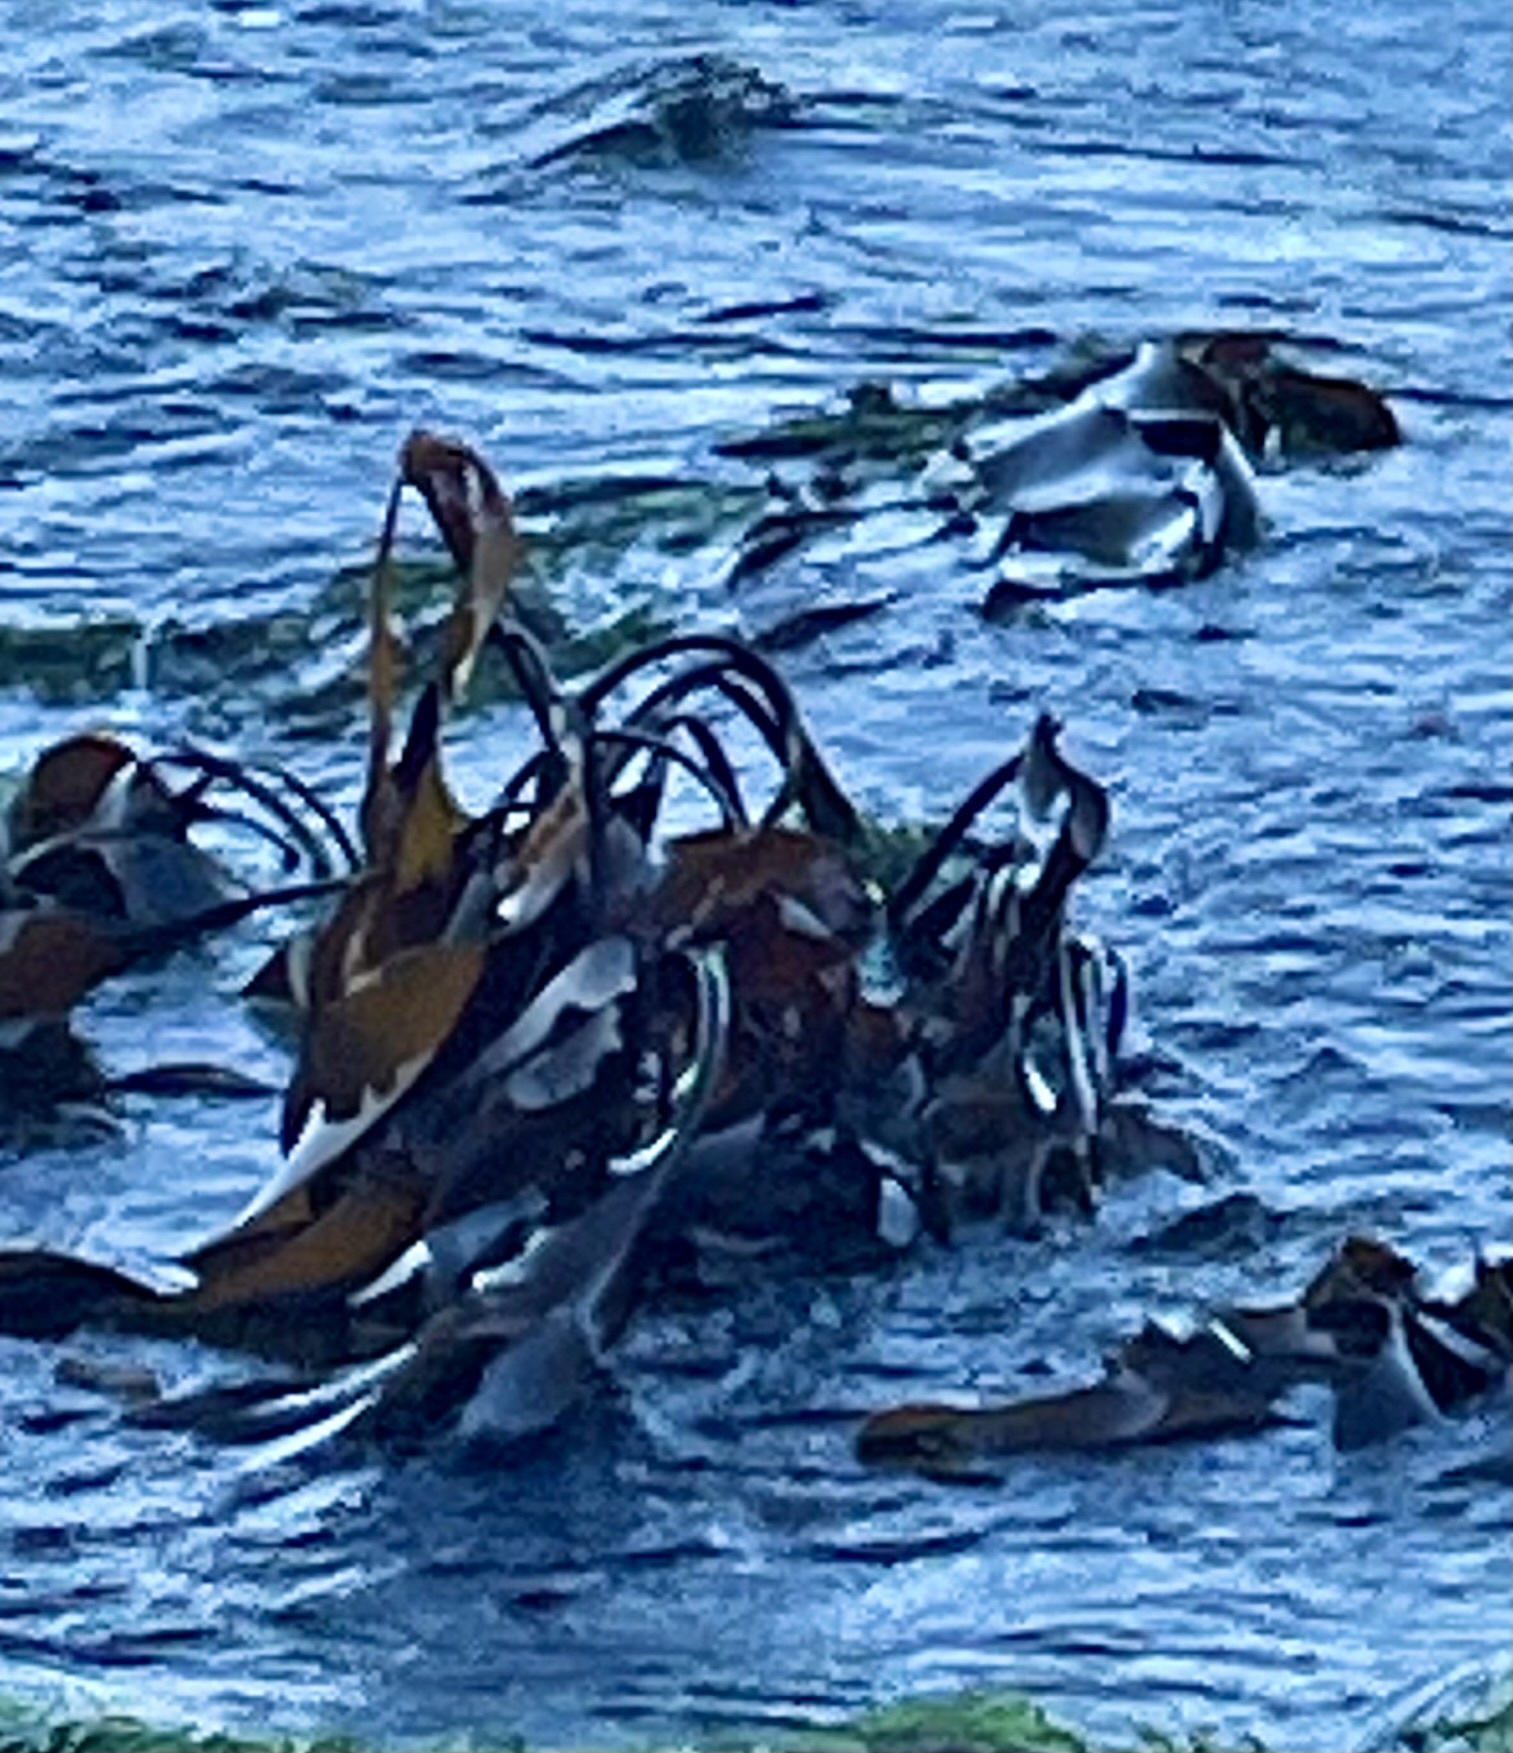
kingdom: Chromista
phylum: Ochrophyta
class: Phaeophyceae
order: Laminariales
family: Laminariaceae
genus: Laminaria
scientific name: Laminaria setchellii
